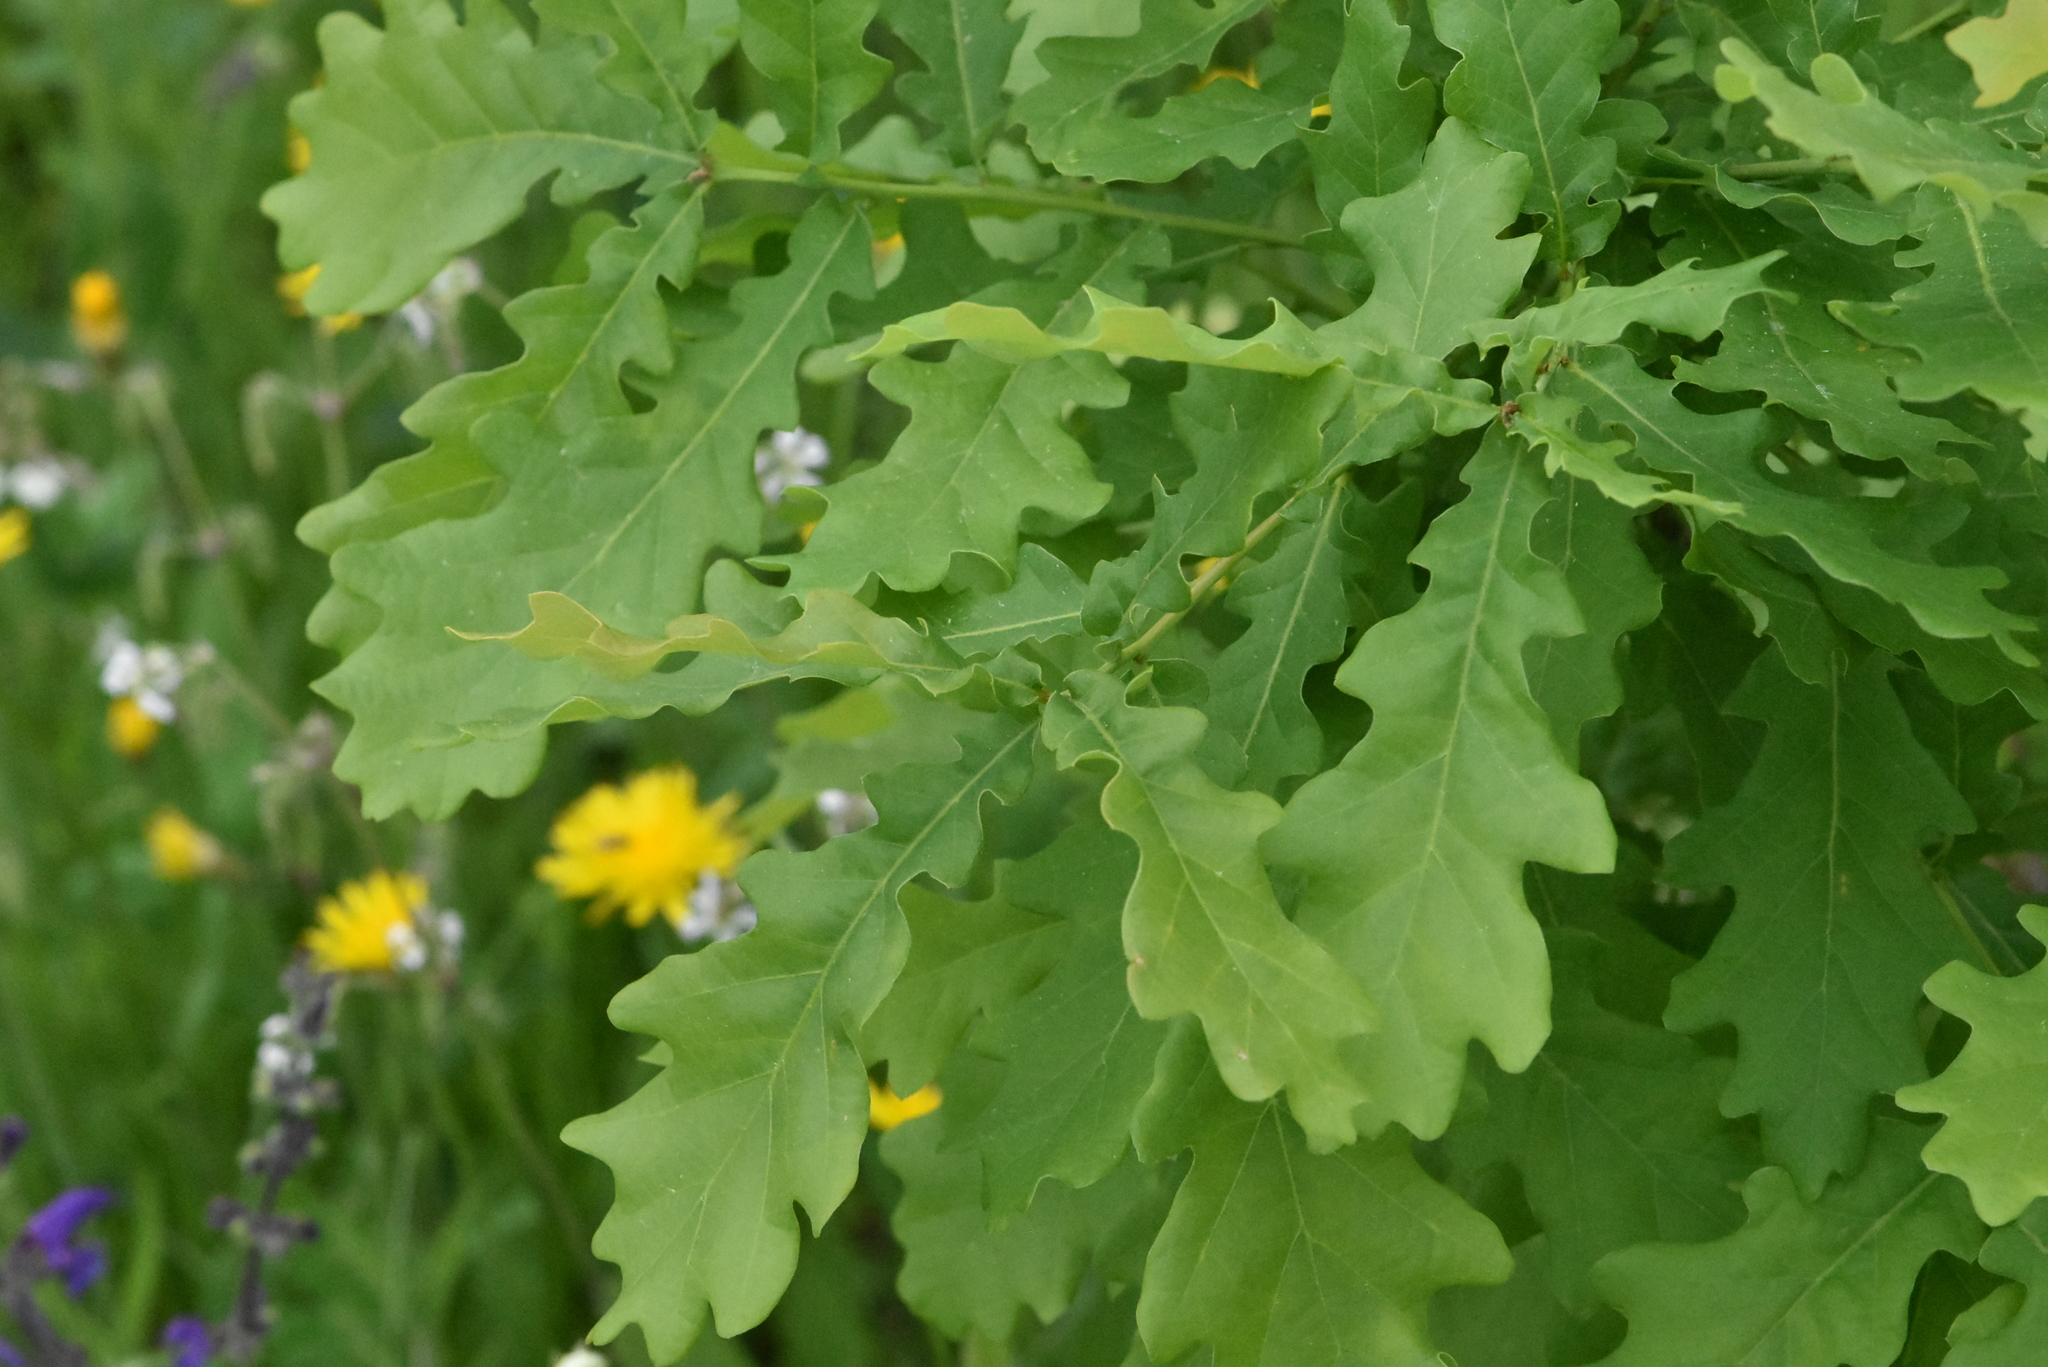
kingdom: Plantae
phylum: Tracheophyta
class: Magnoliopsida
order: Fagales
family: Fagaceae
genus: Quercus
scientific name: Quercus robur
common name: Pedunculate oak
